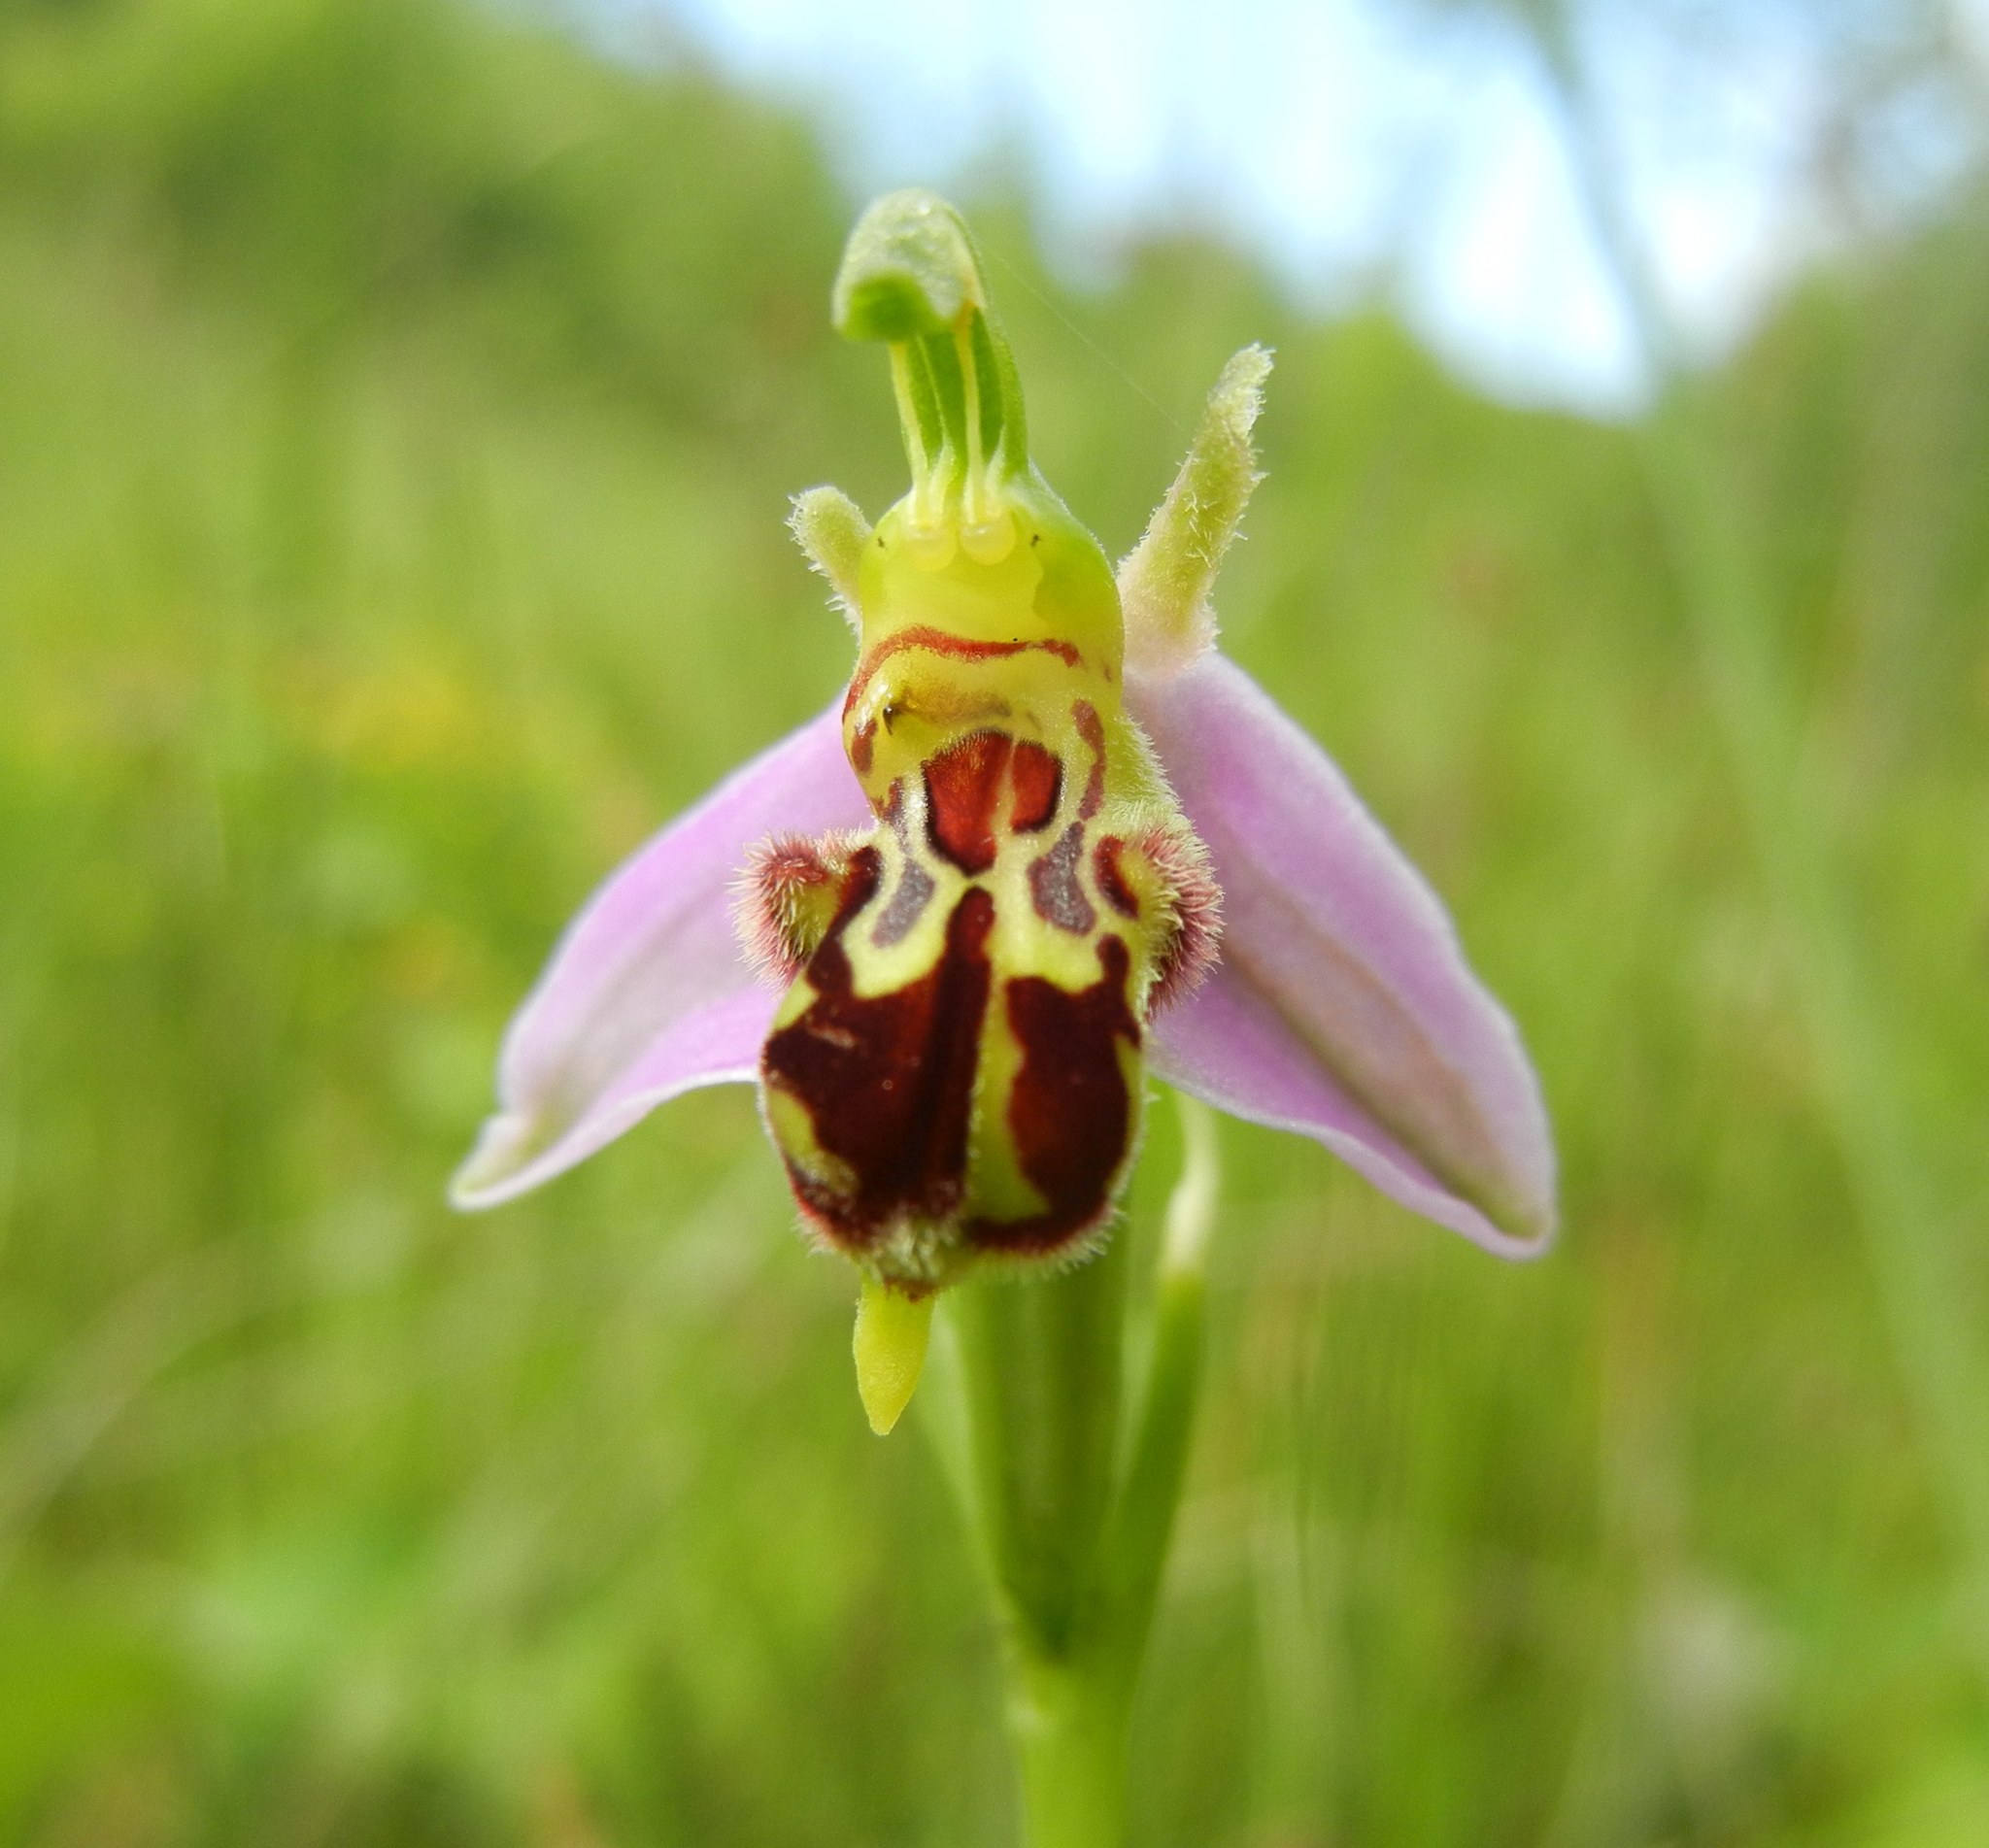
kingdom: Plantae
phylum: Tracheophyta
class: Liliopsida
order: Asparagales
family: Orchidaceae
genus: Ophrys
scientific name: Ophrys apifera
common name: Bee orchid
